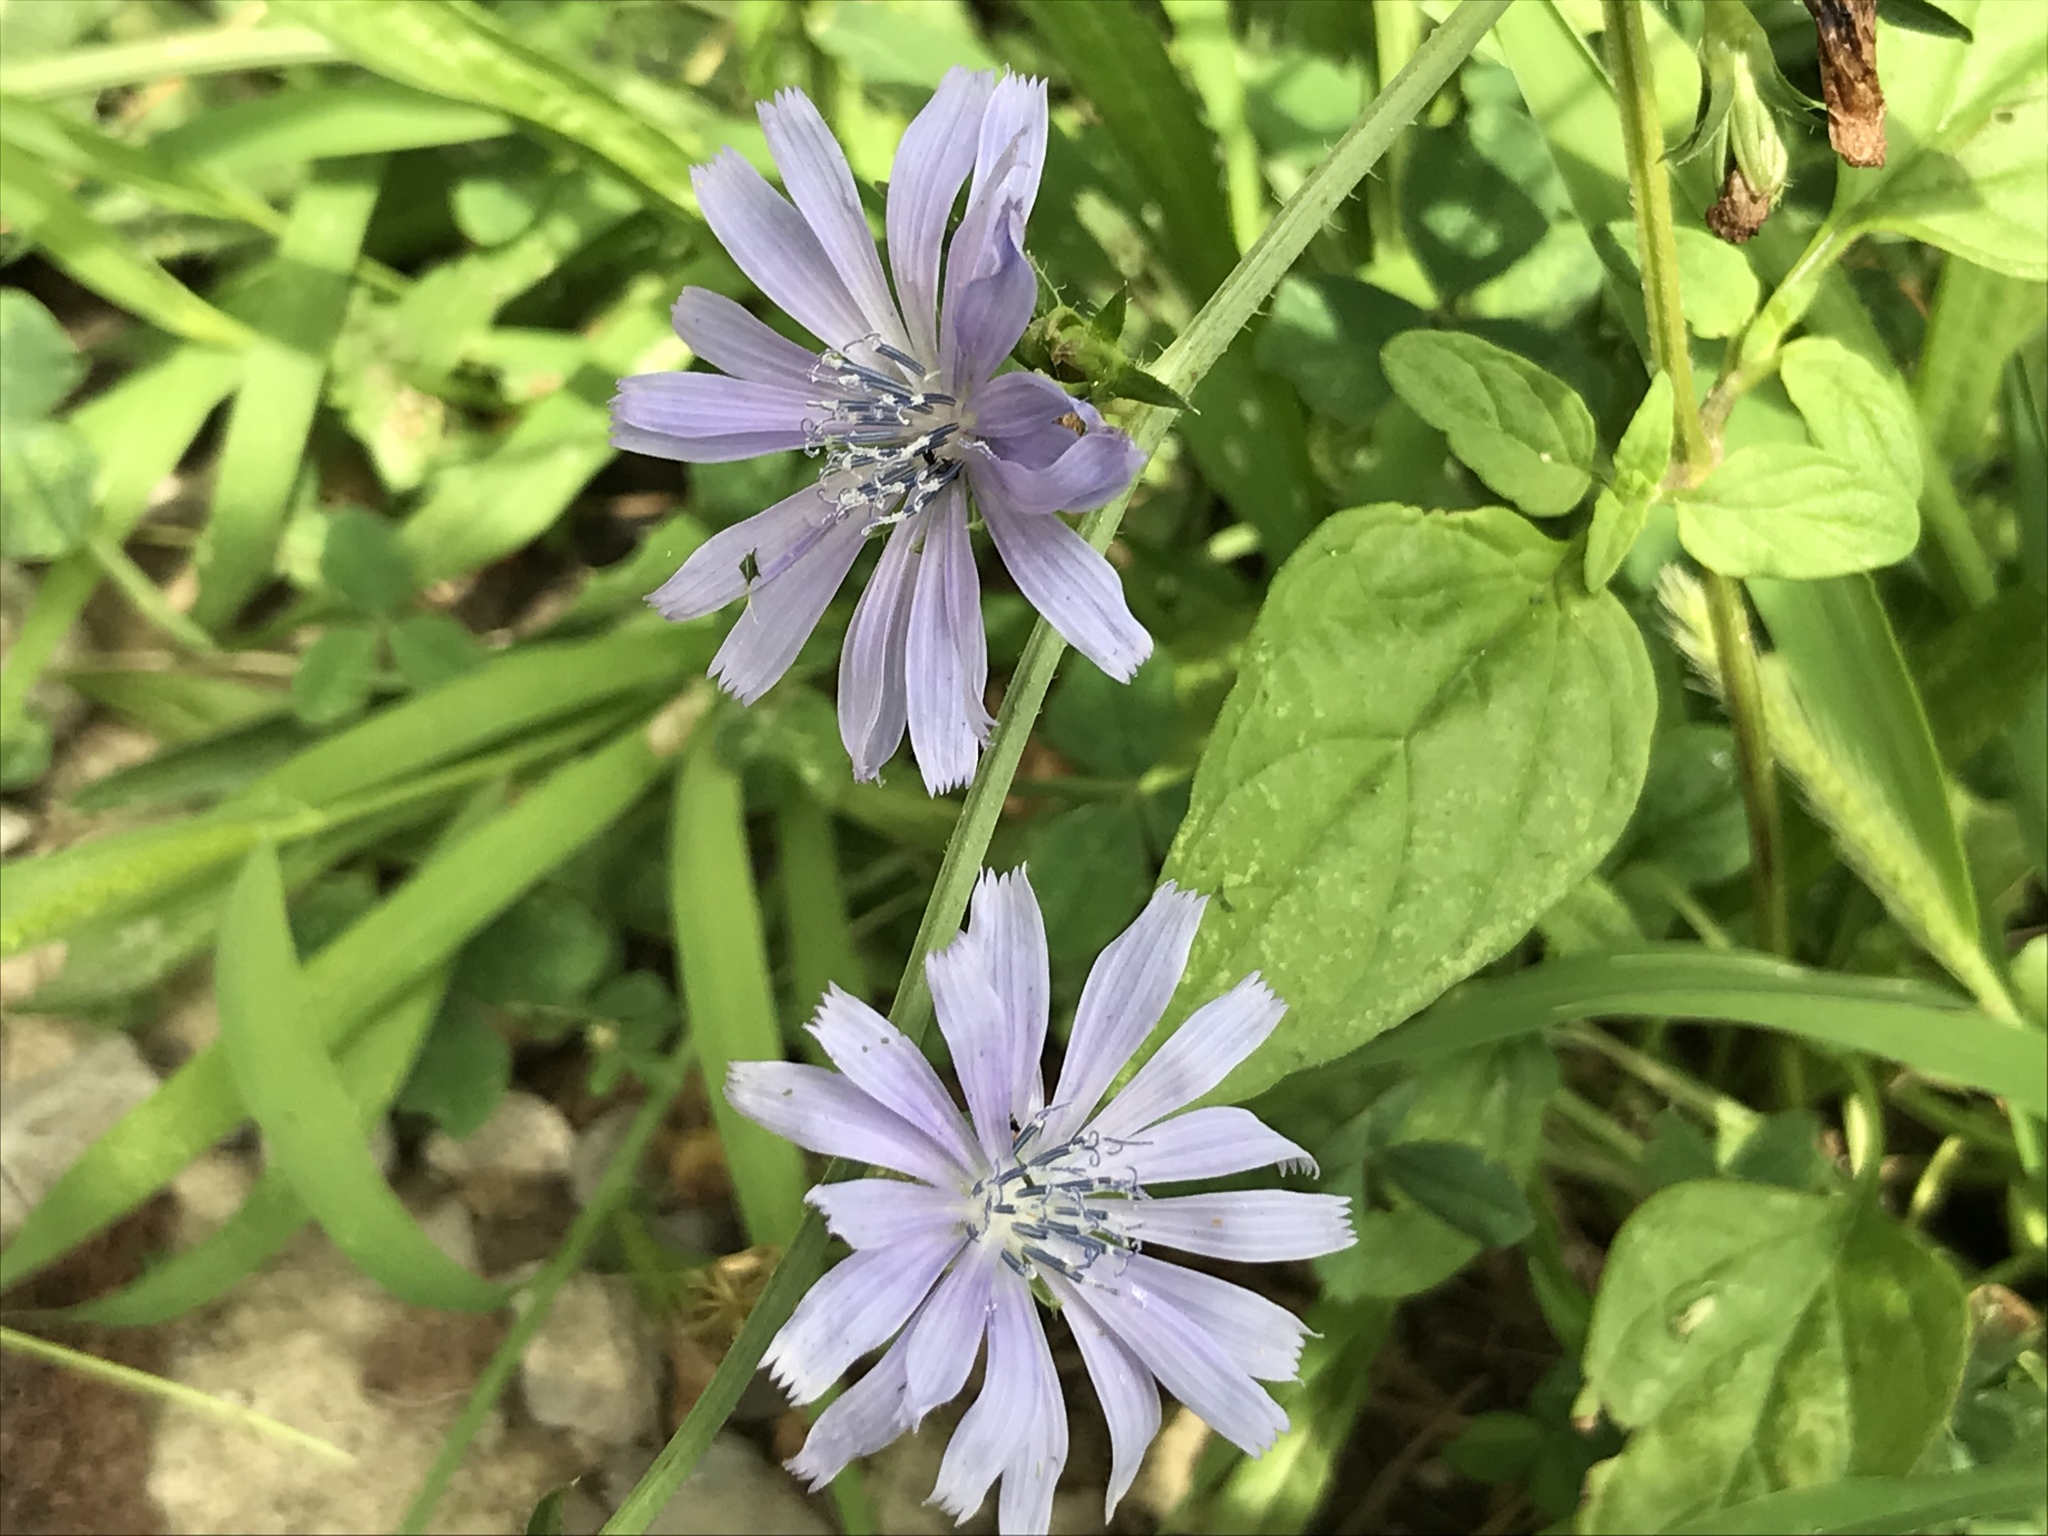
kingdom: Plantae
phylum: Tracheophyta
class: Magnoliopsida
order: Asterales
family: Asteraceae
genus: Cichorium
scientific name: Cichorium intybus
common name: Chicory
